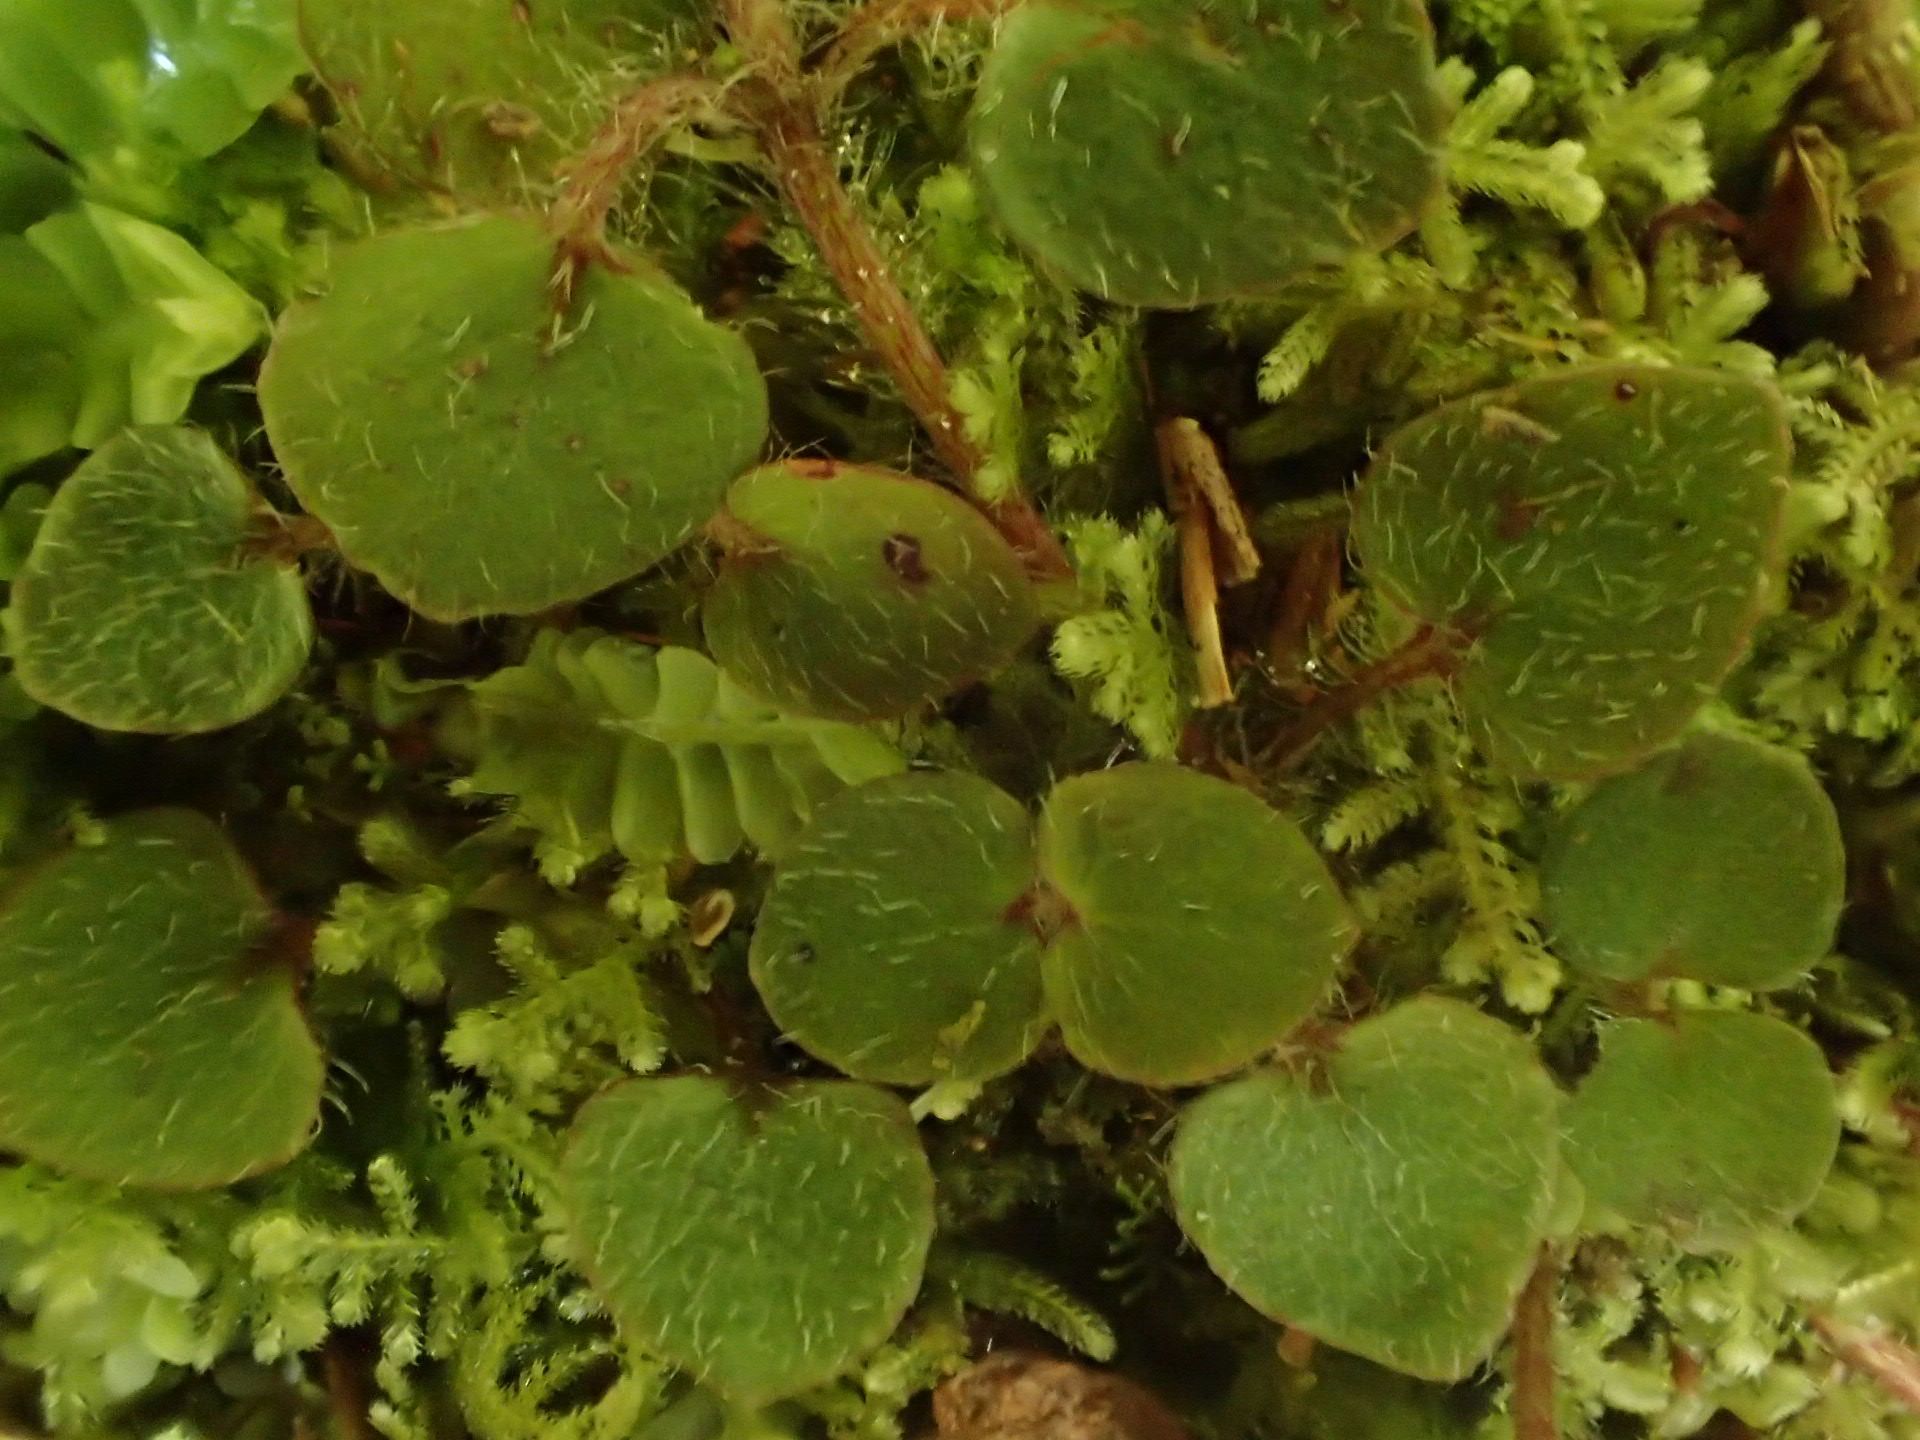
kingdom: Plantae
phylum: Tracheophyta
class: Magnoliopsida
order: Gentianales
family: Rubiaceae
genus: Nertera
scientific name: Nertera villosa
